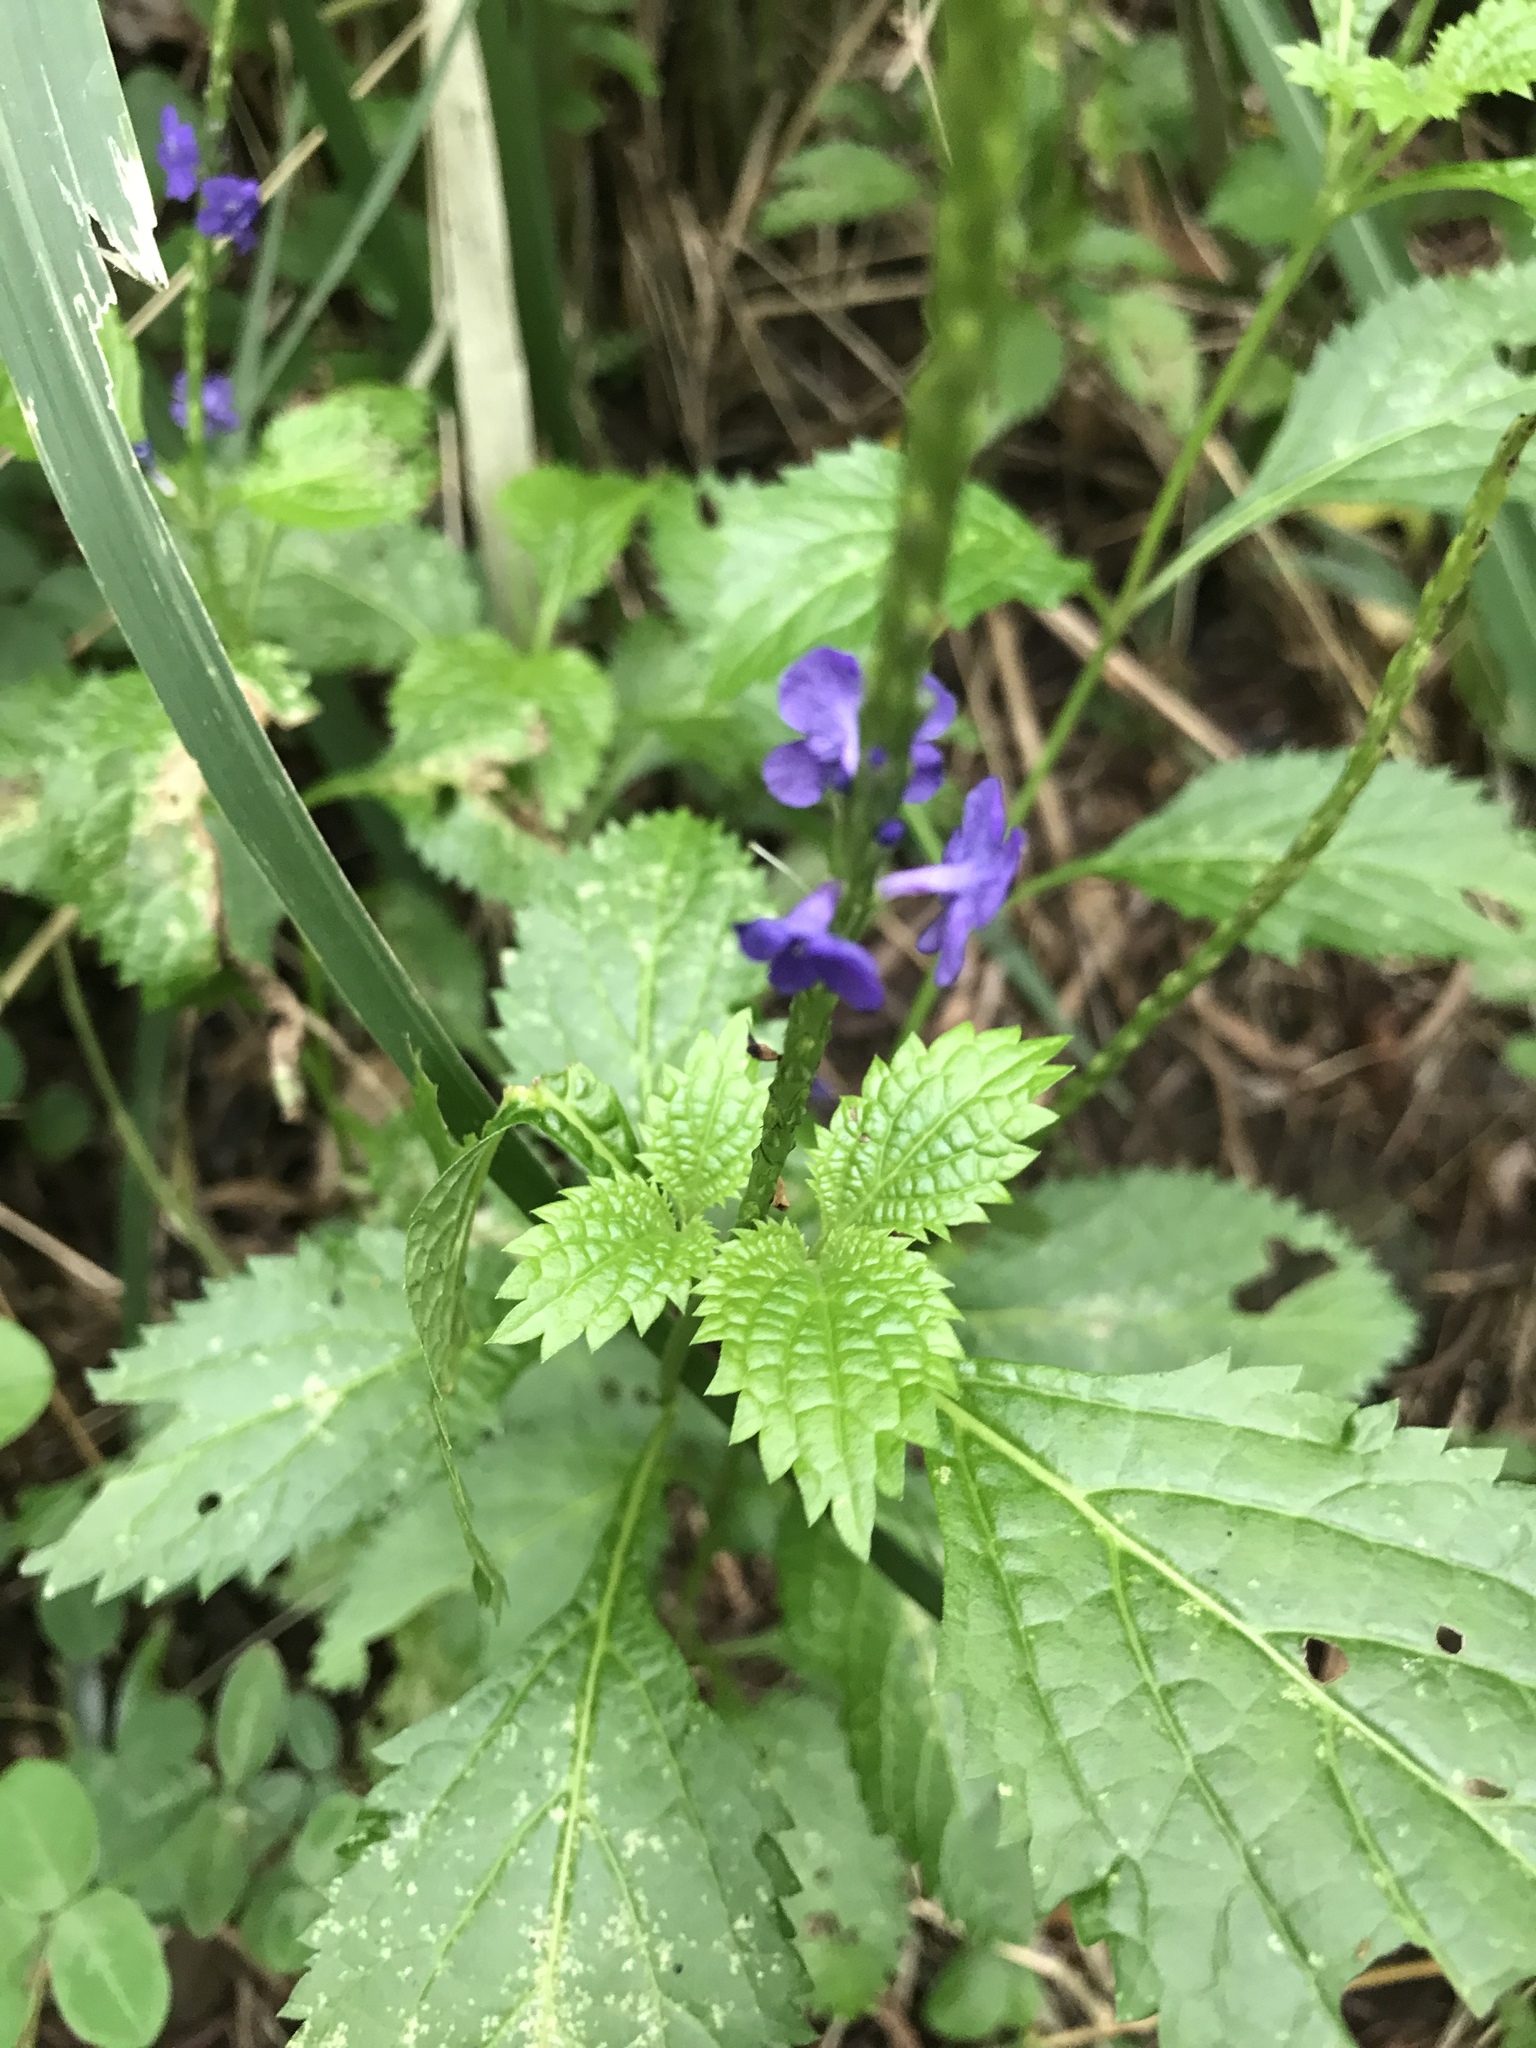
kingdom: Plantae
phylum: Tracheophyta
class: Magnoliopsida
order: Lamiales
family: Verbenaceae
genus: Stachytarpheta
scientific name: Stachytarpheta cayennensis
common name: Cayenne porterweed
